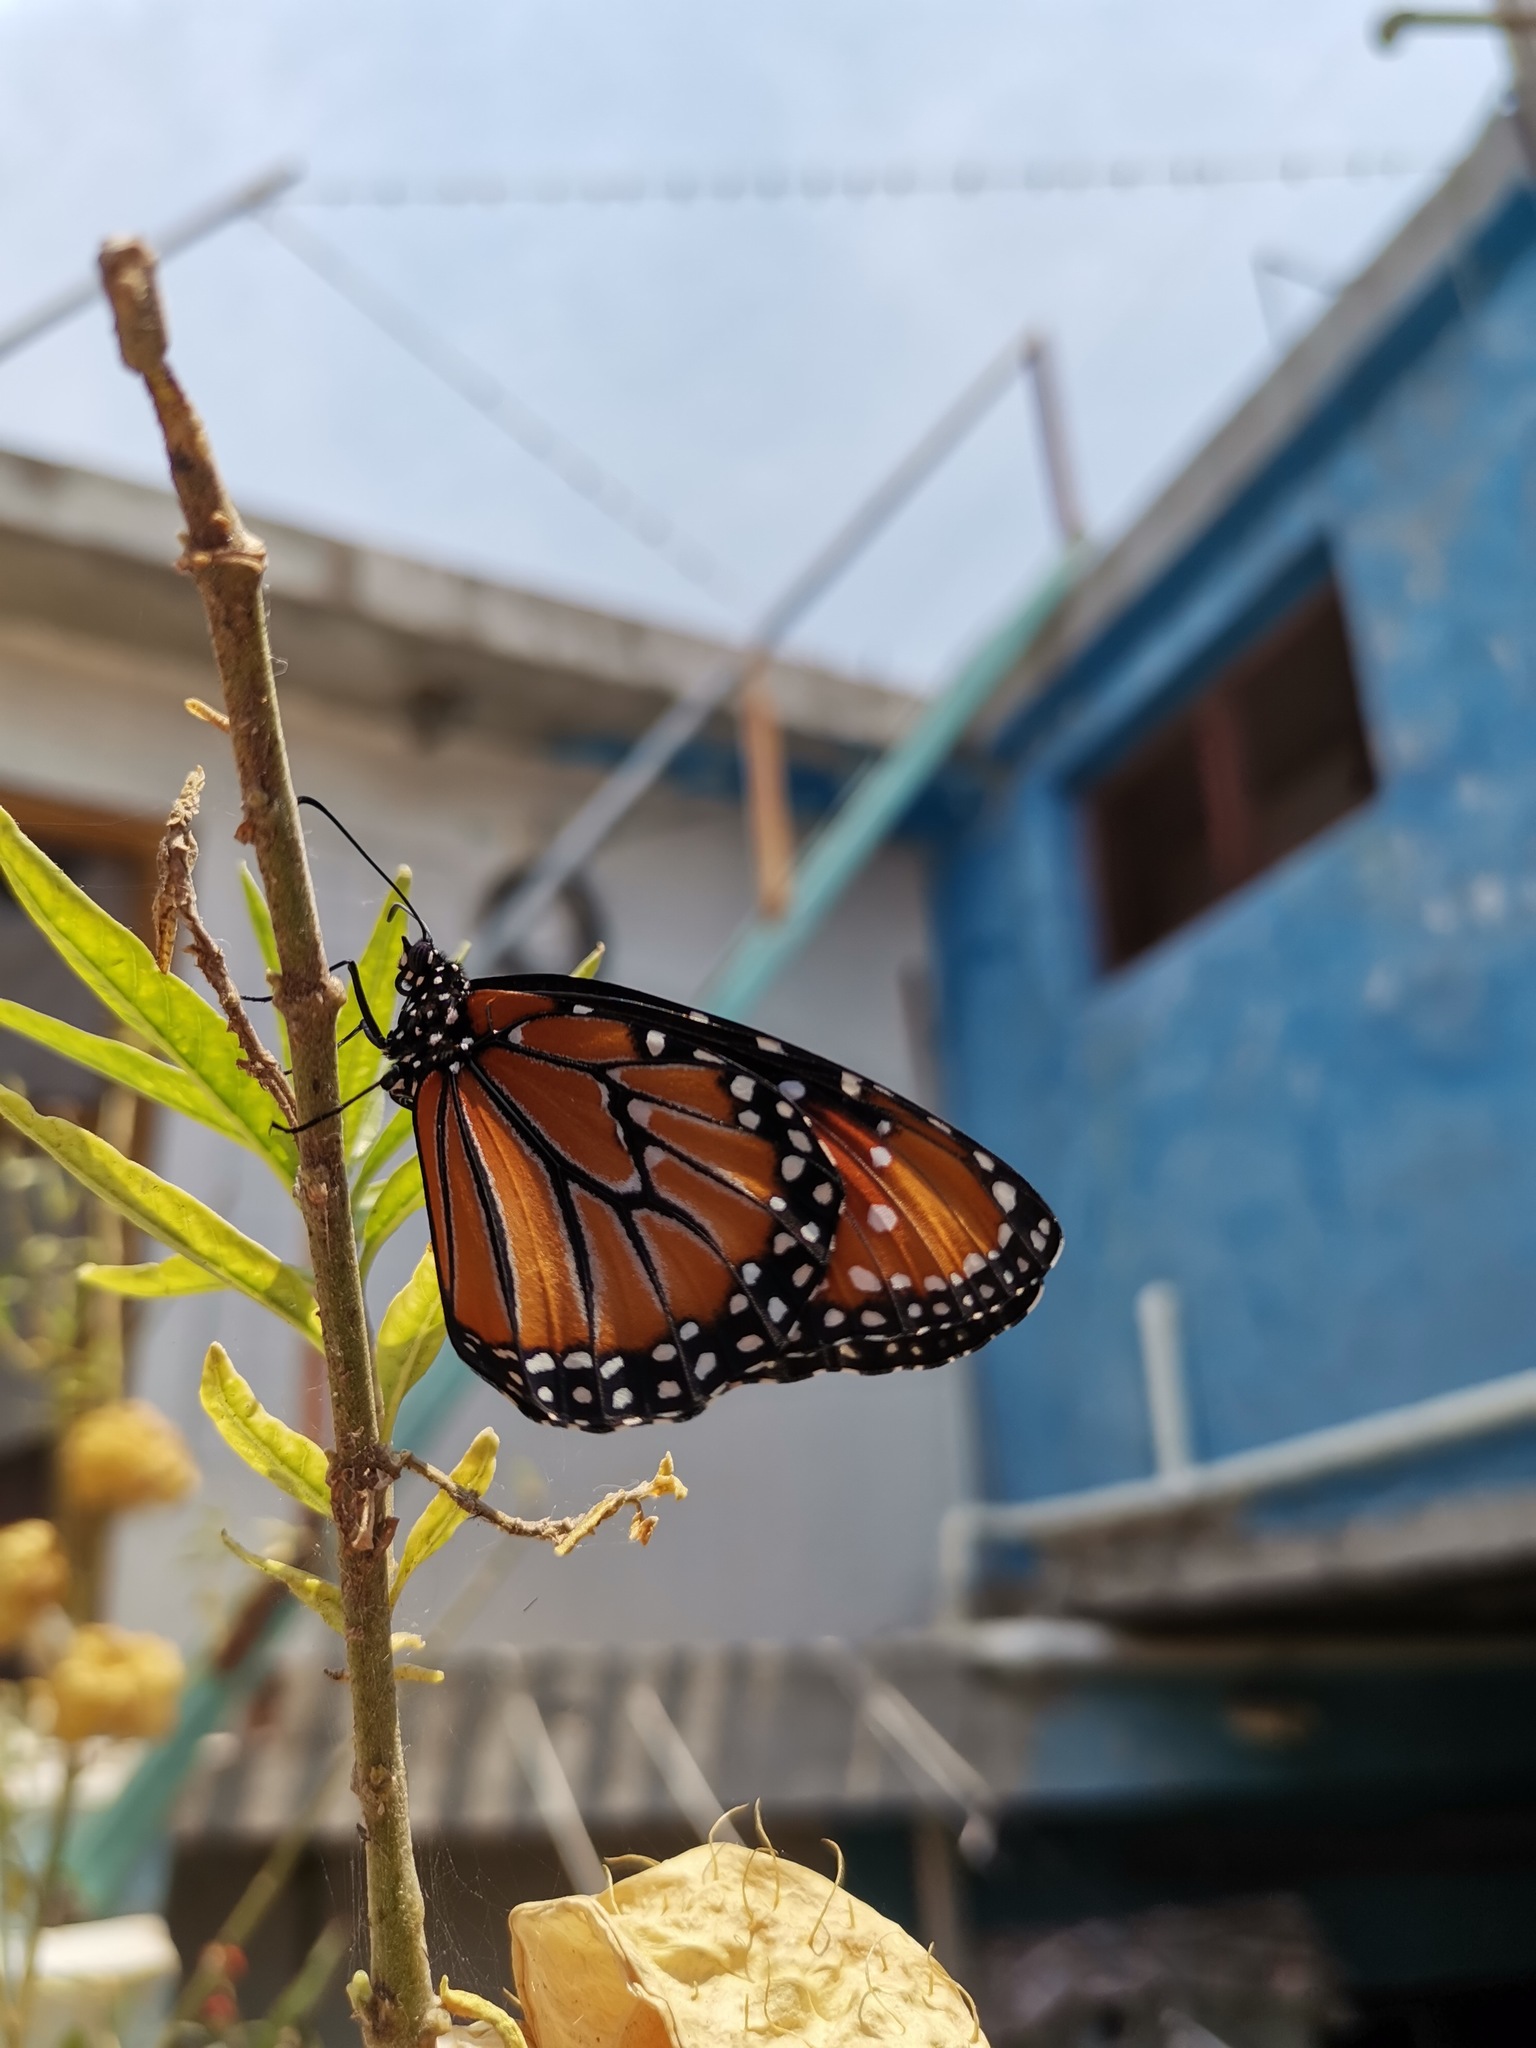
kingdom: Animalia
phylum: Arthropoda
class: Insecta
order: Lepidoptera
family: Nymphalidae
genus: Danaus
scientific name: Danaus gilippus
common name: Queen
